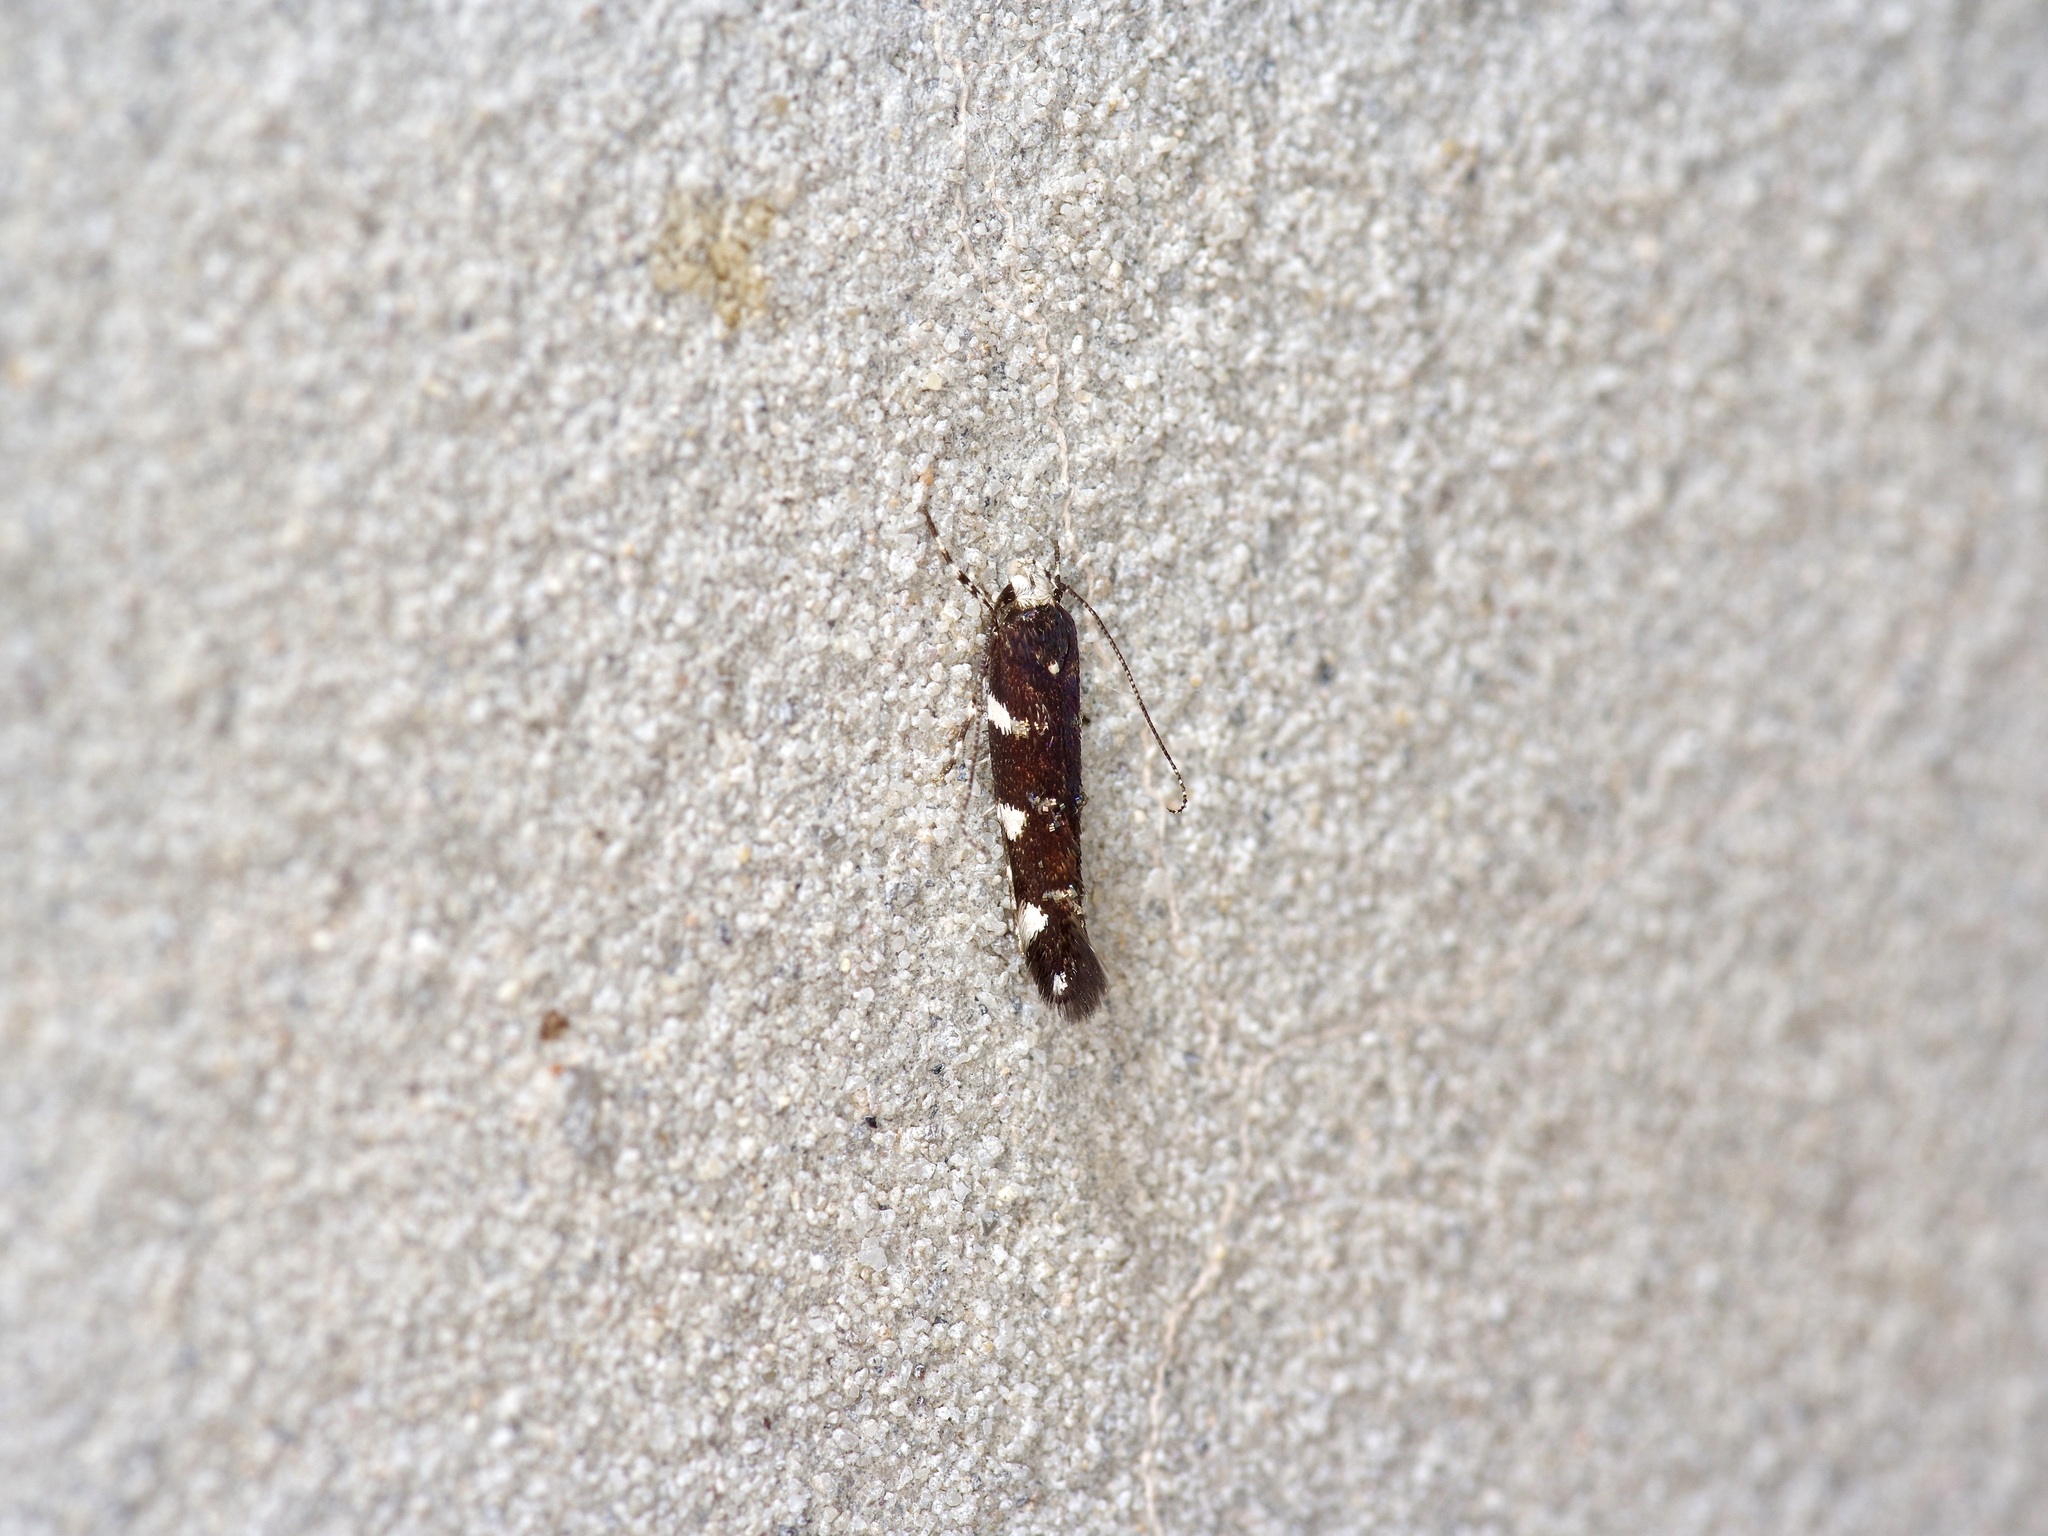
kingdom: Animalia
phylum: Arthropoda
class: Insecta
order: Lepidoptera
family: Cosmopterigidae
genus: Eteobalea
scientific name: Eteobalea sexnotella
